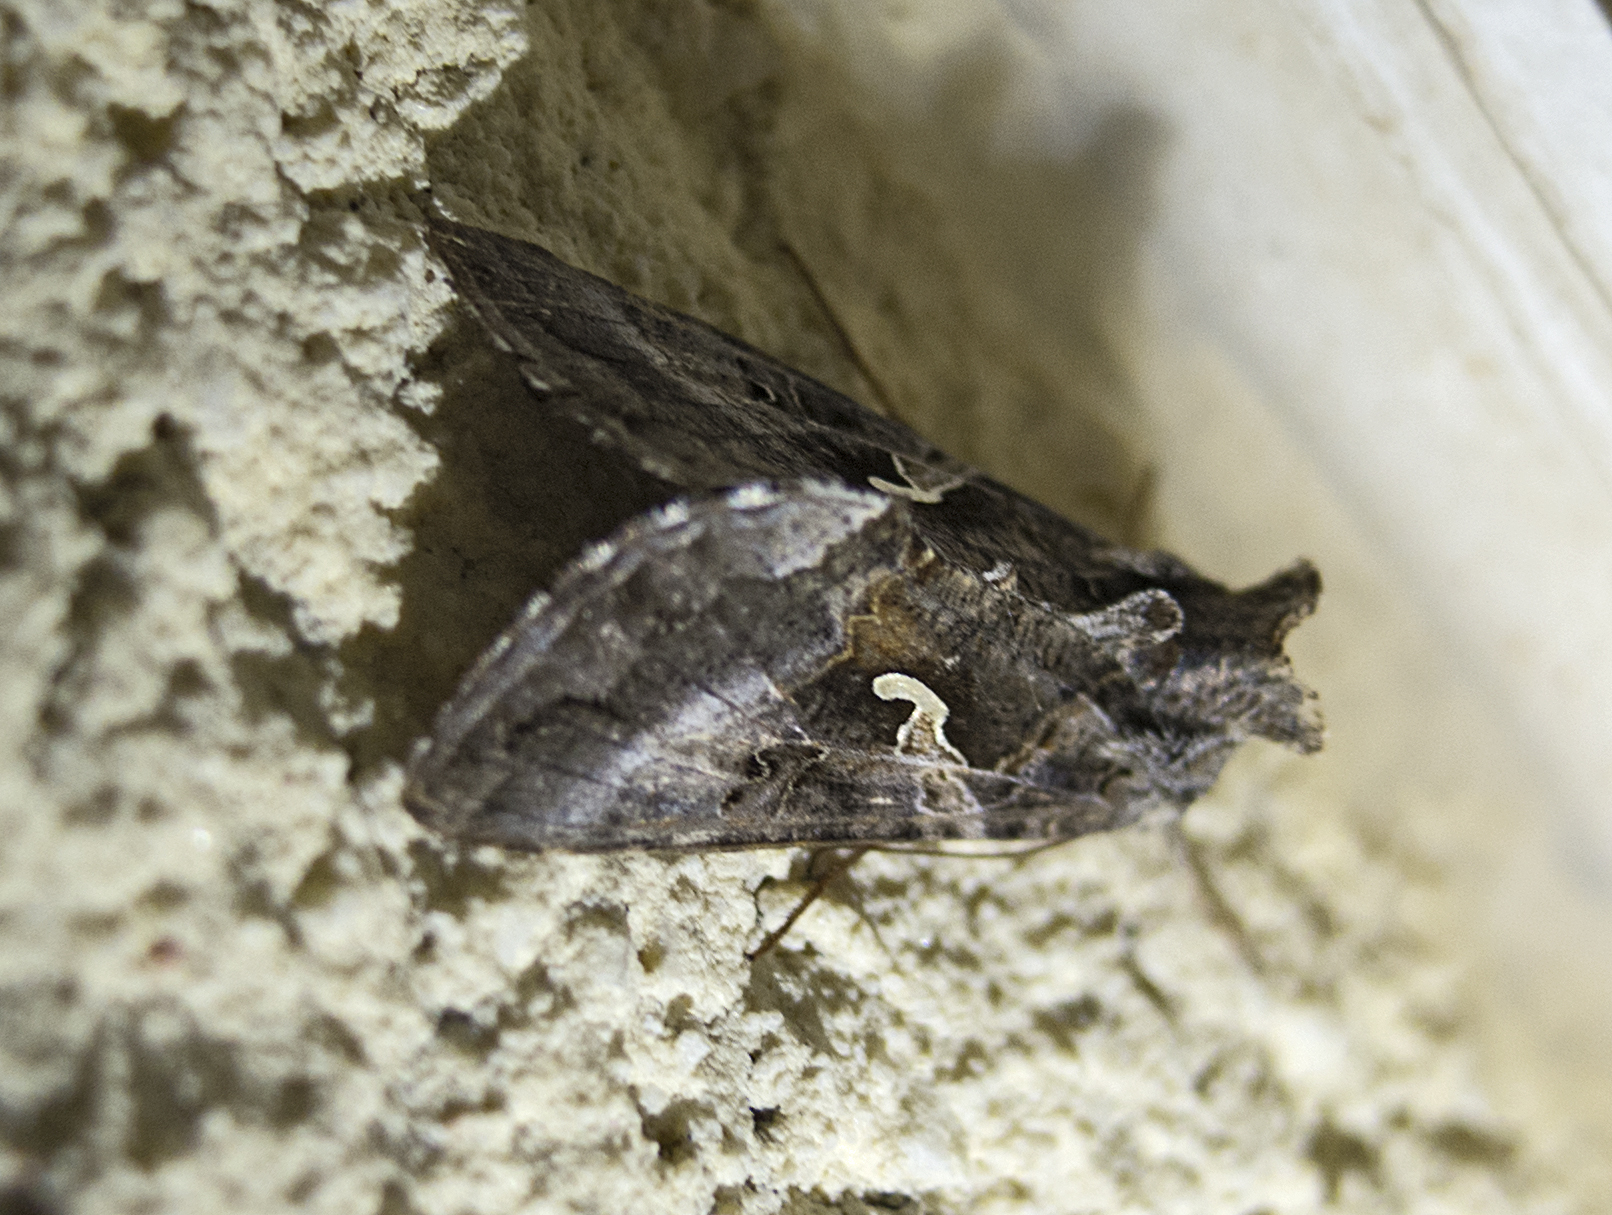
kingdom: Animalia
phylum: Arthropoda
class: Insecta
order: Lepidoptera
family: Noctuidae
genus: Autographa
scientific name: Autographa gamma
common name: Silver y
